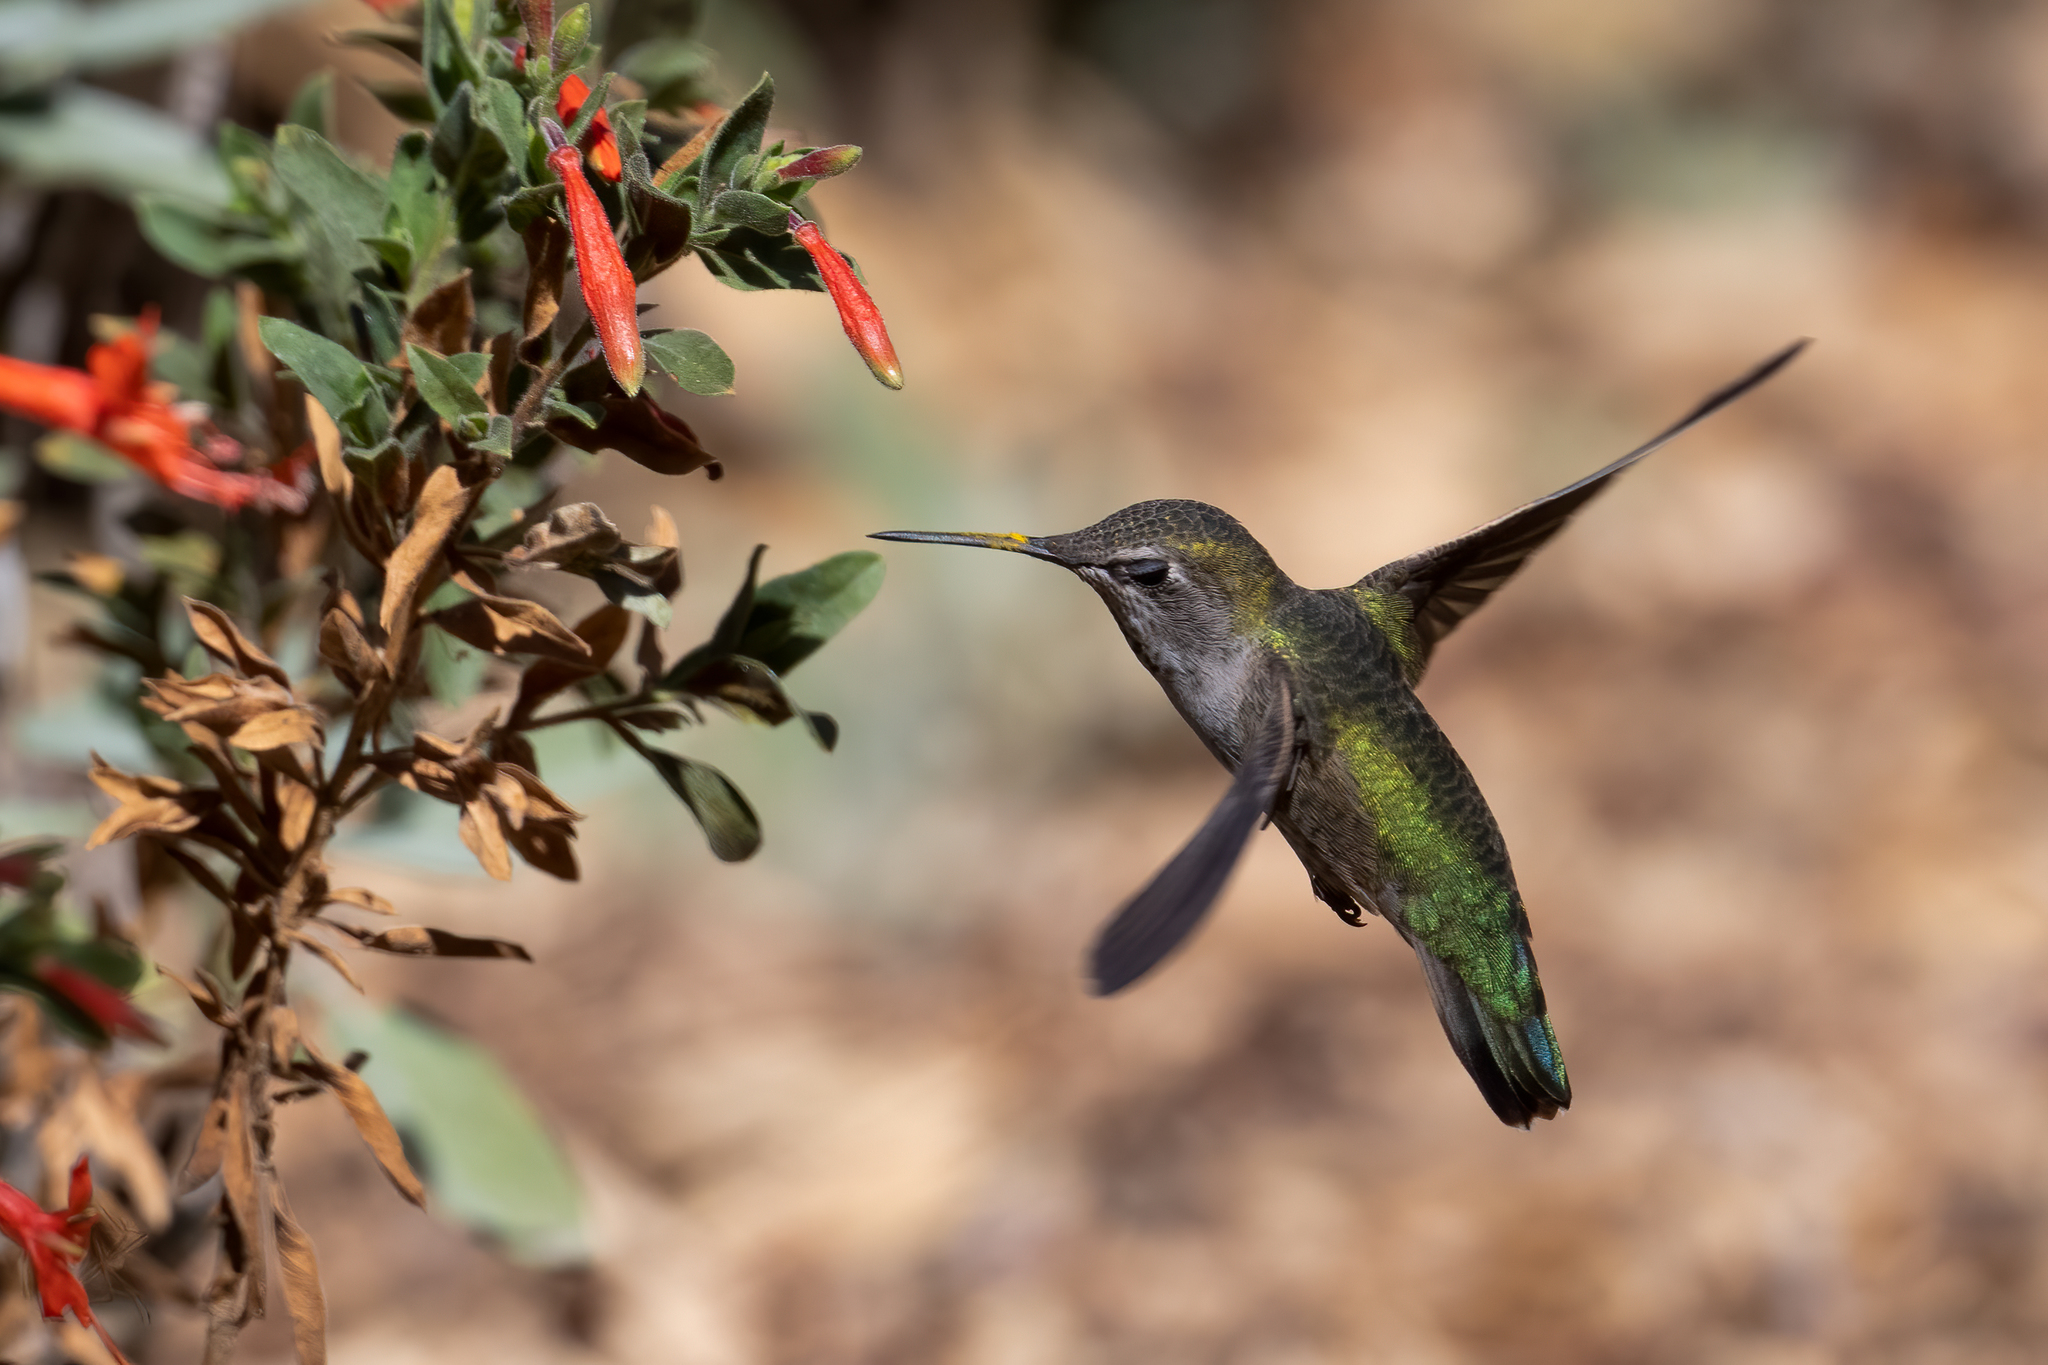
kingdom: Animalia
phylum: Chordata
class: Aves
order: Apodiformes
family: Trochilidae
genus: Calypte
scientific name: Calypte anna
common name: Anna's hummingbird
